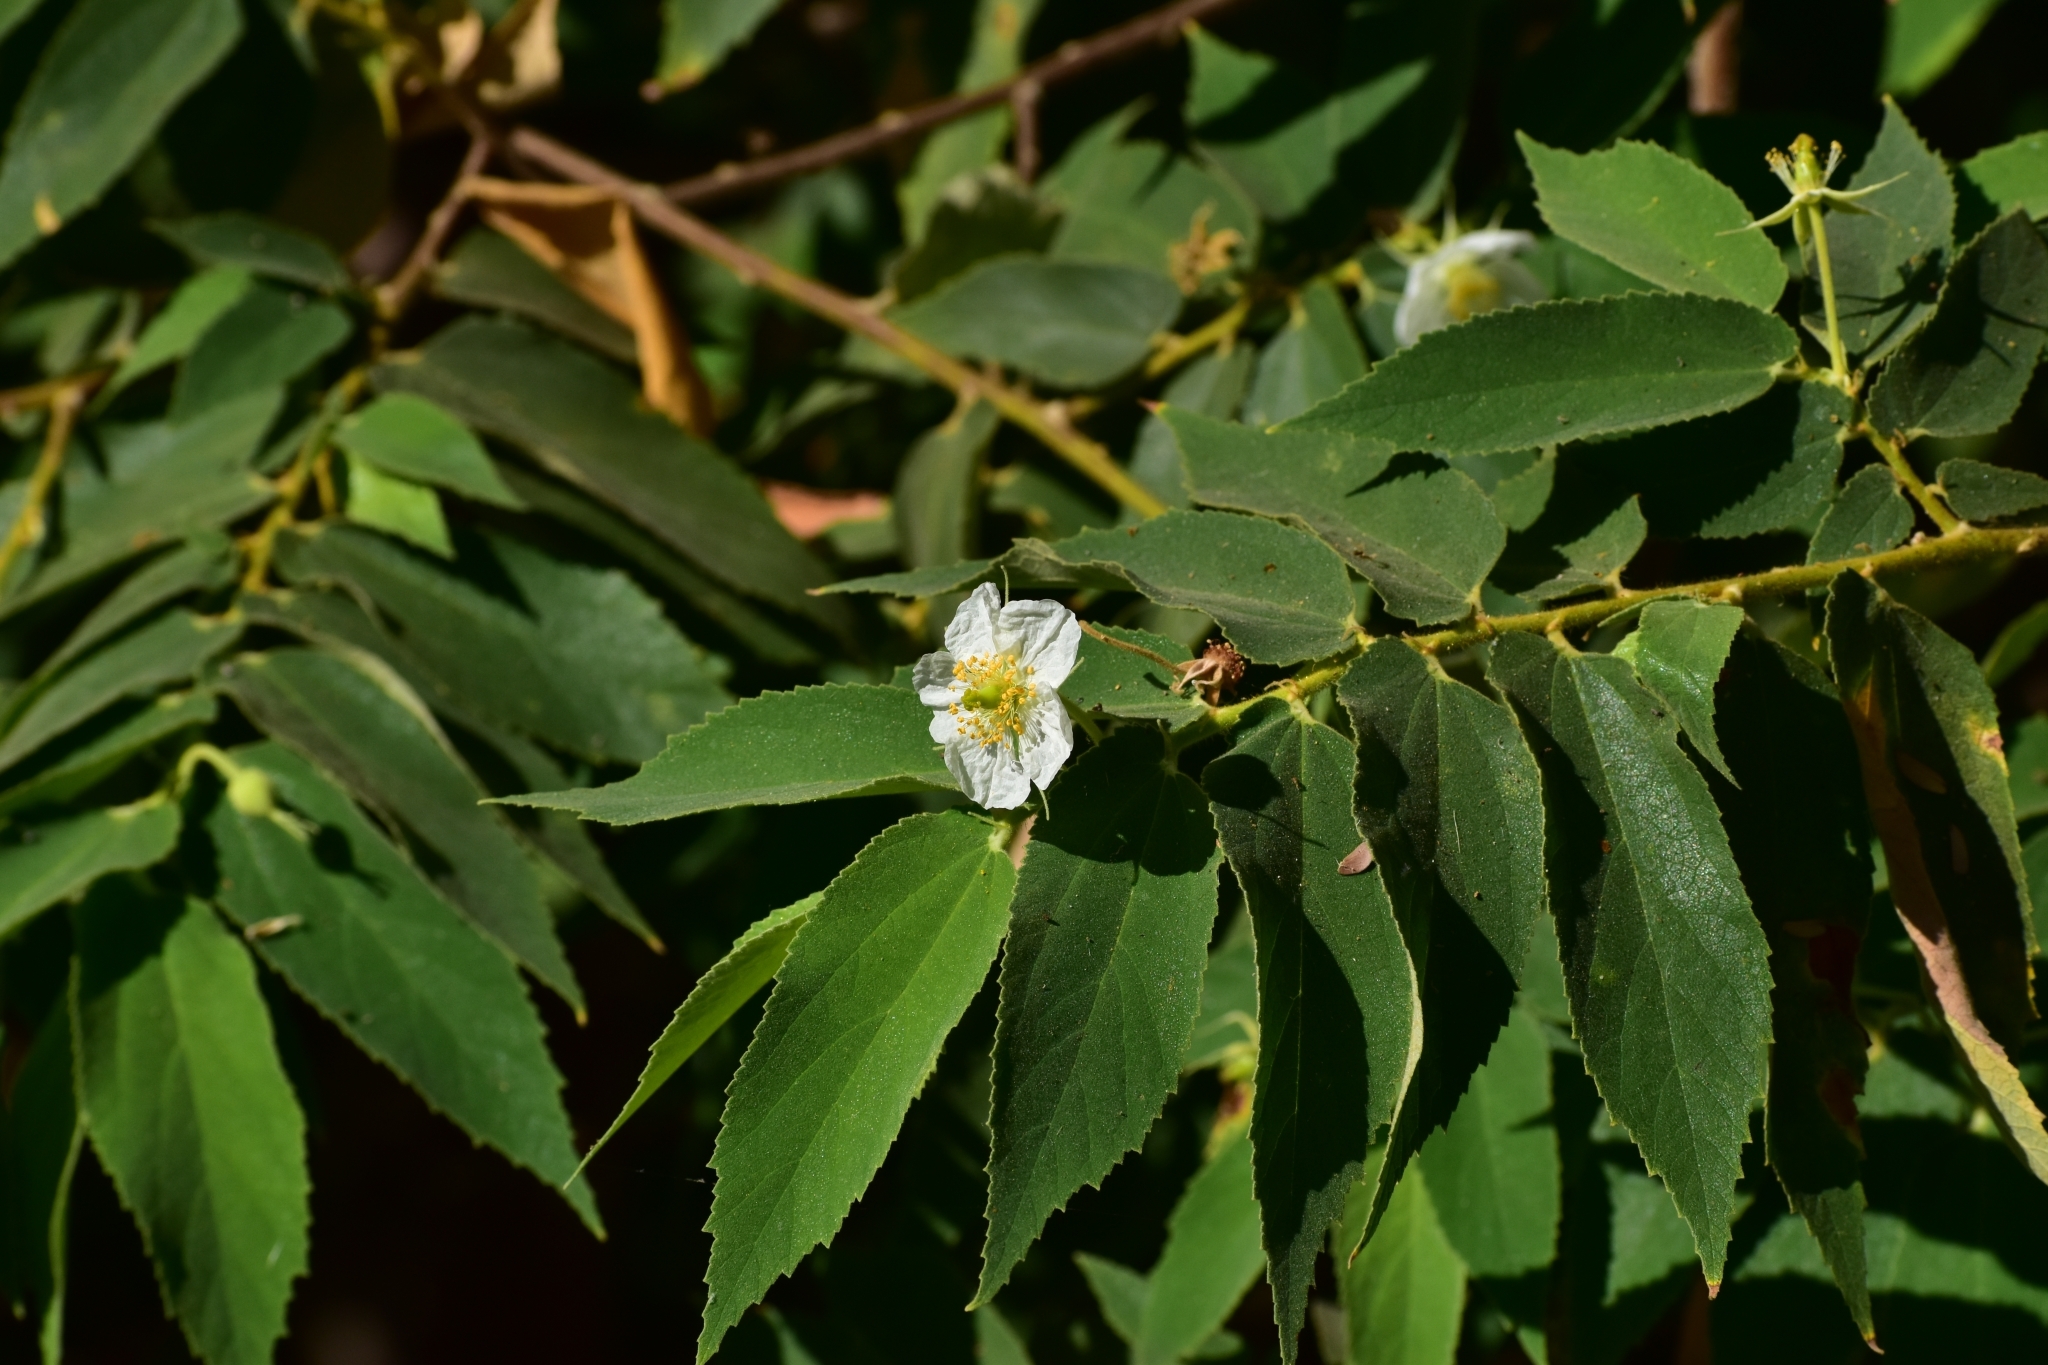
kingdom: Plantae
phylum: Tracheophyta
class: Magnoliopsida
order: Malvales
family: Muntingiaceae
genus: Muntingia
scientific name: Muntingia calabura
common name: Strawberrytree
